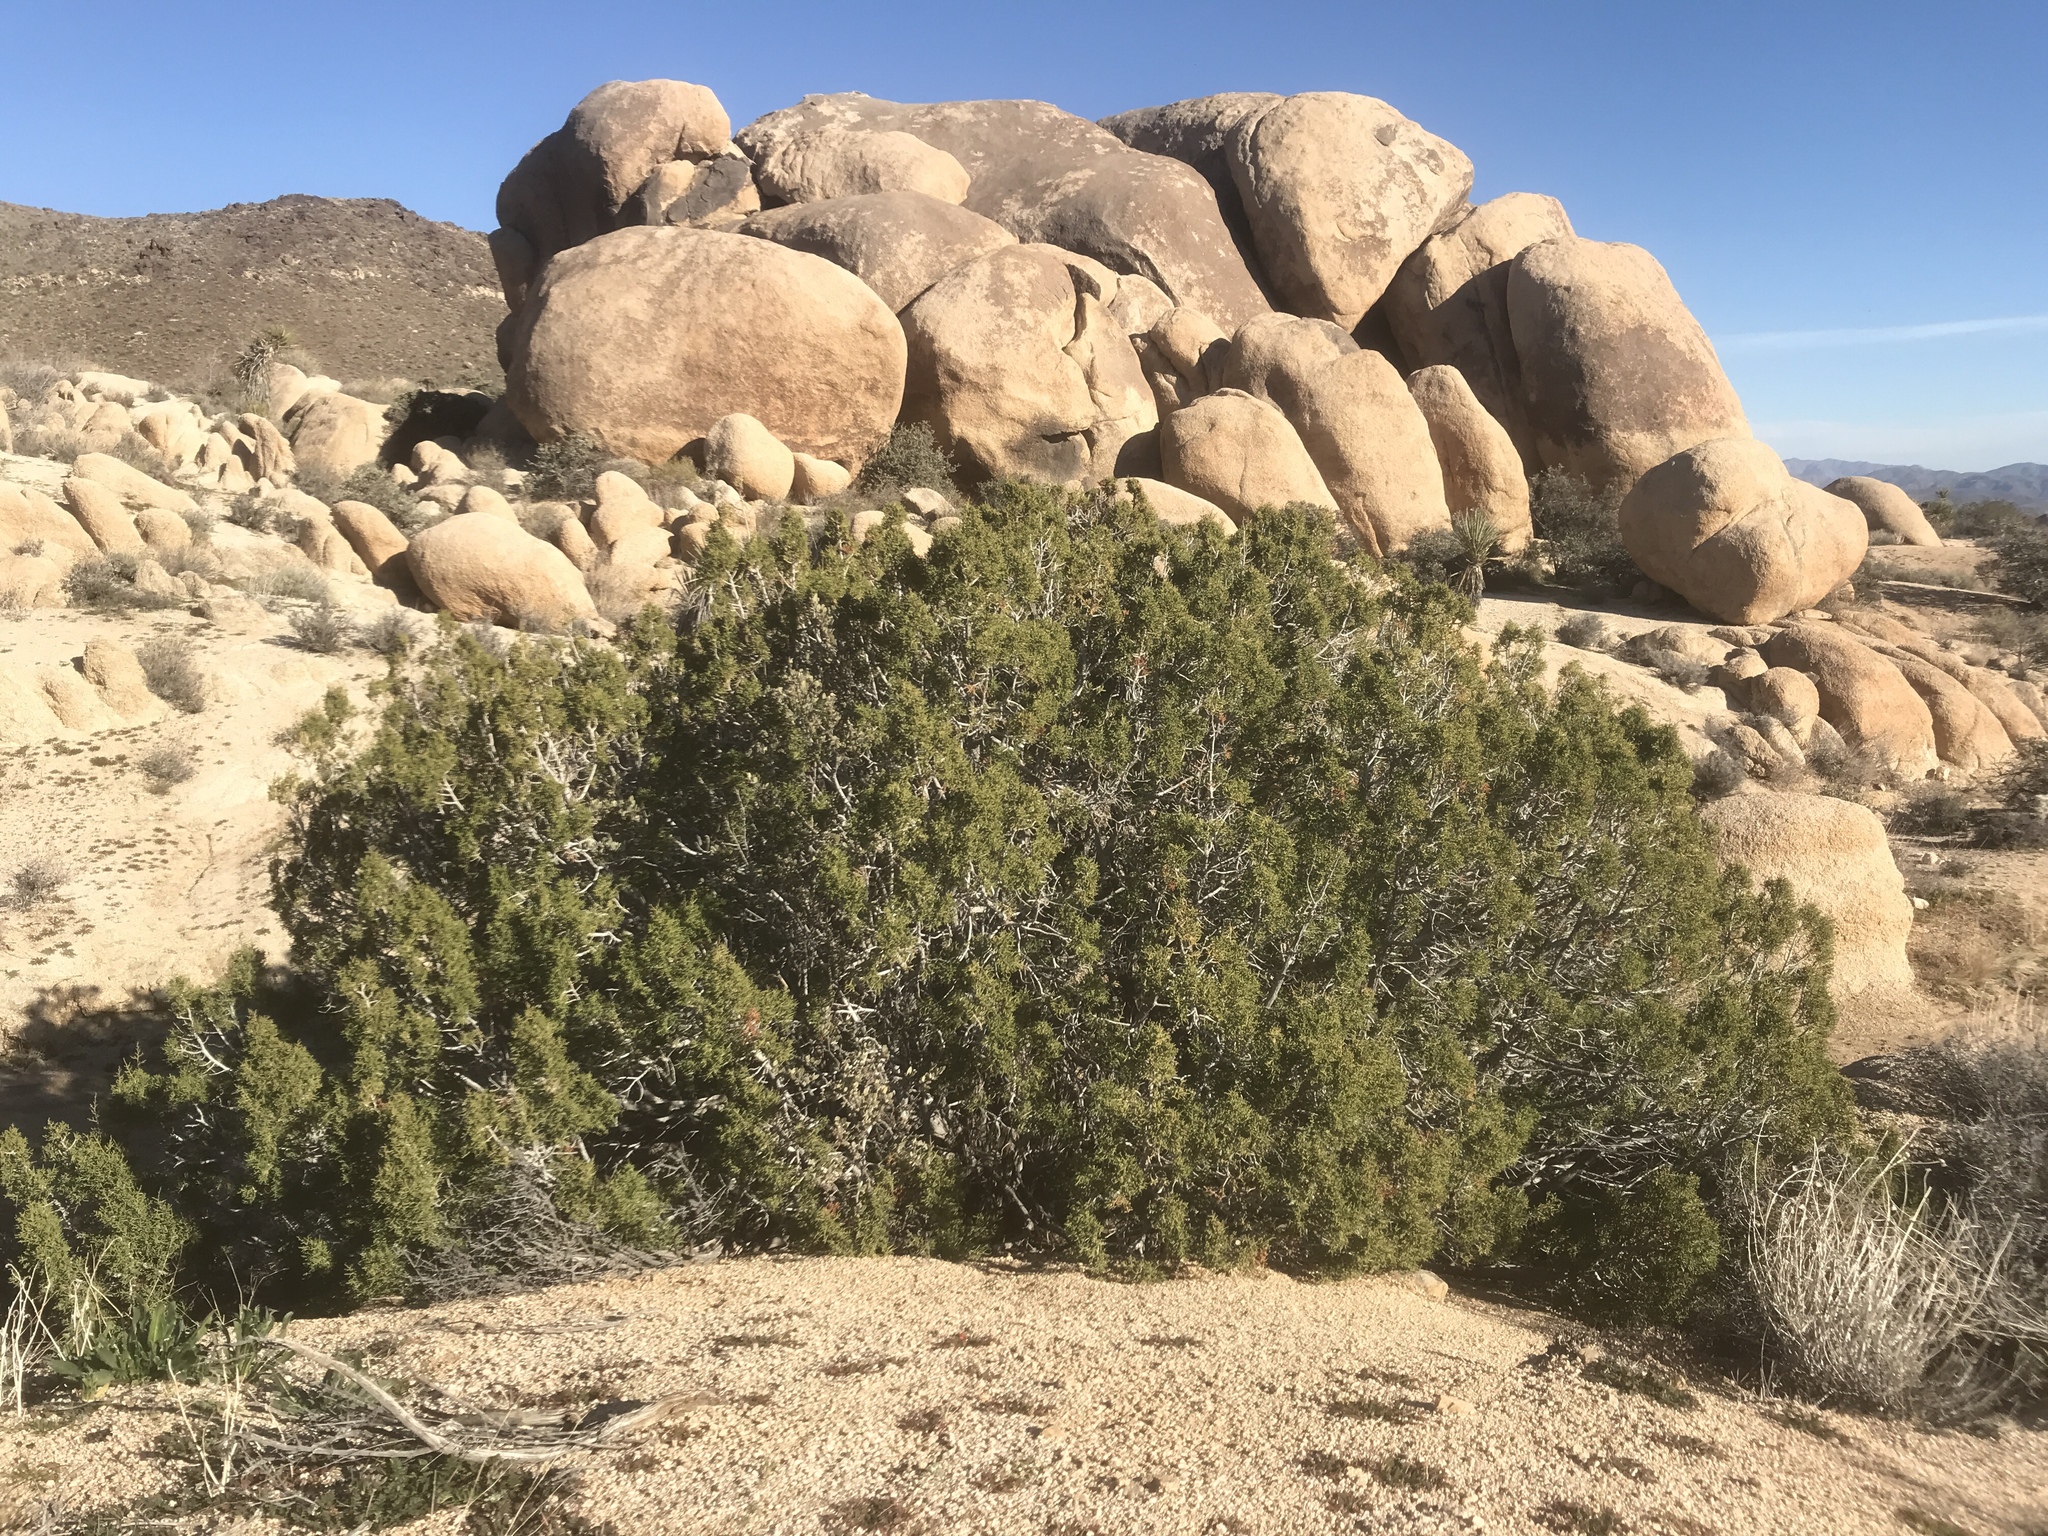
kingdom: Plantae
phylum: Tracheophyta
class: Pinopsida
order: Pinales
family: Cupressaceae
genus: Juniperus
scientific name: Juniperus californica
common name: California juniper
